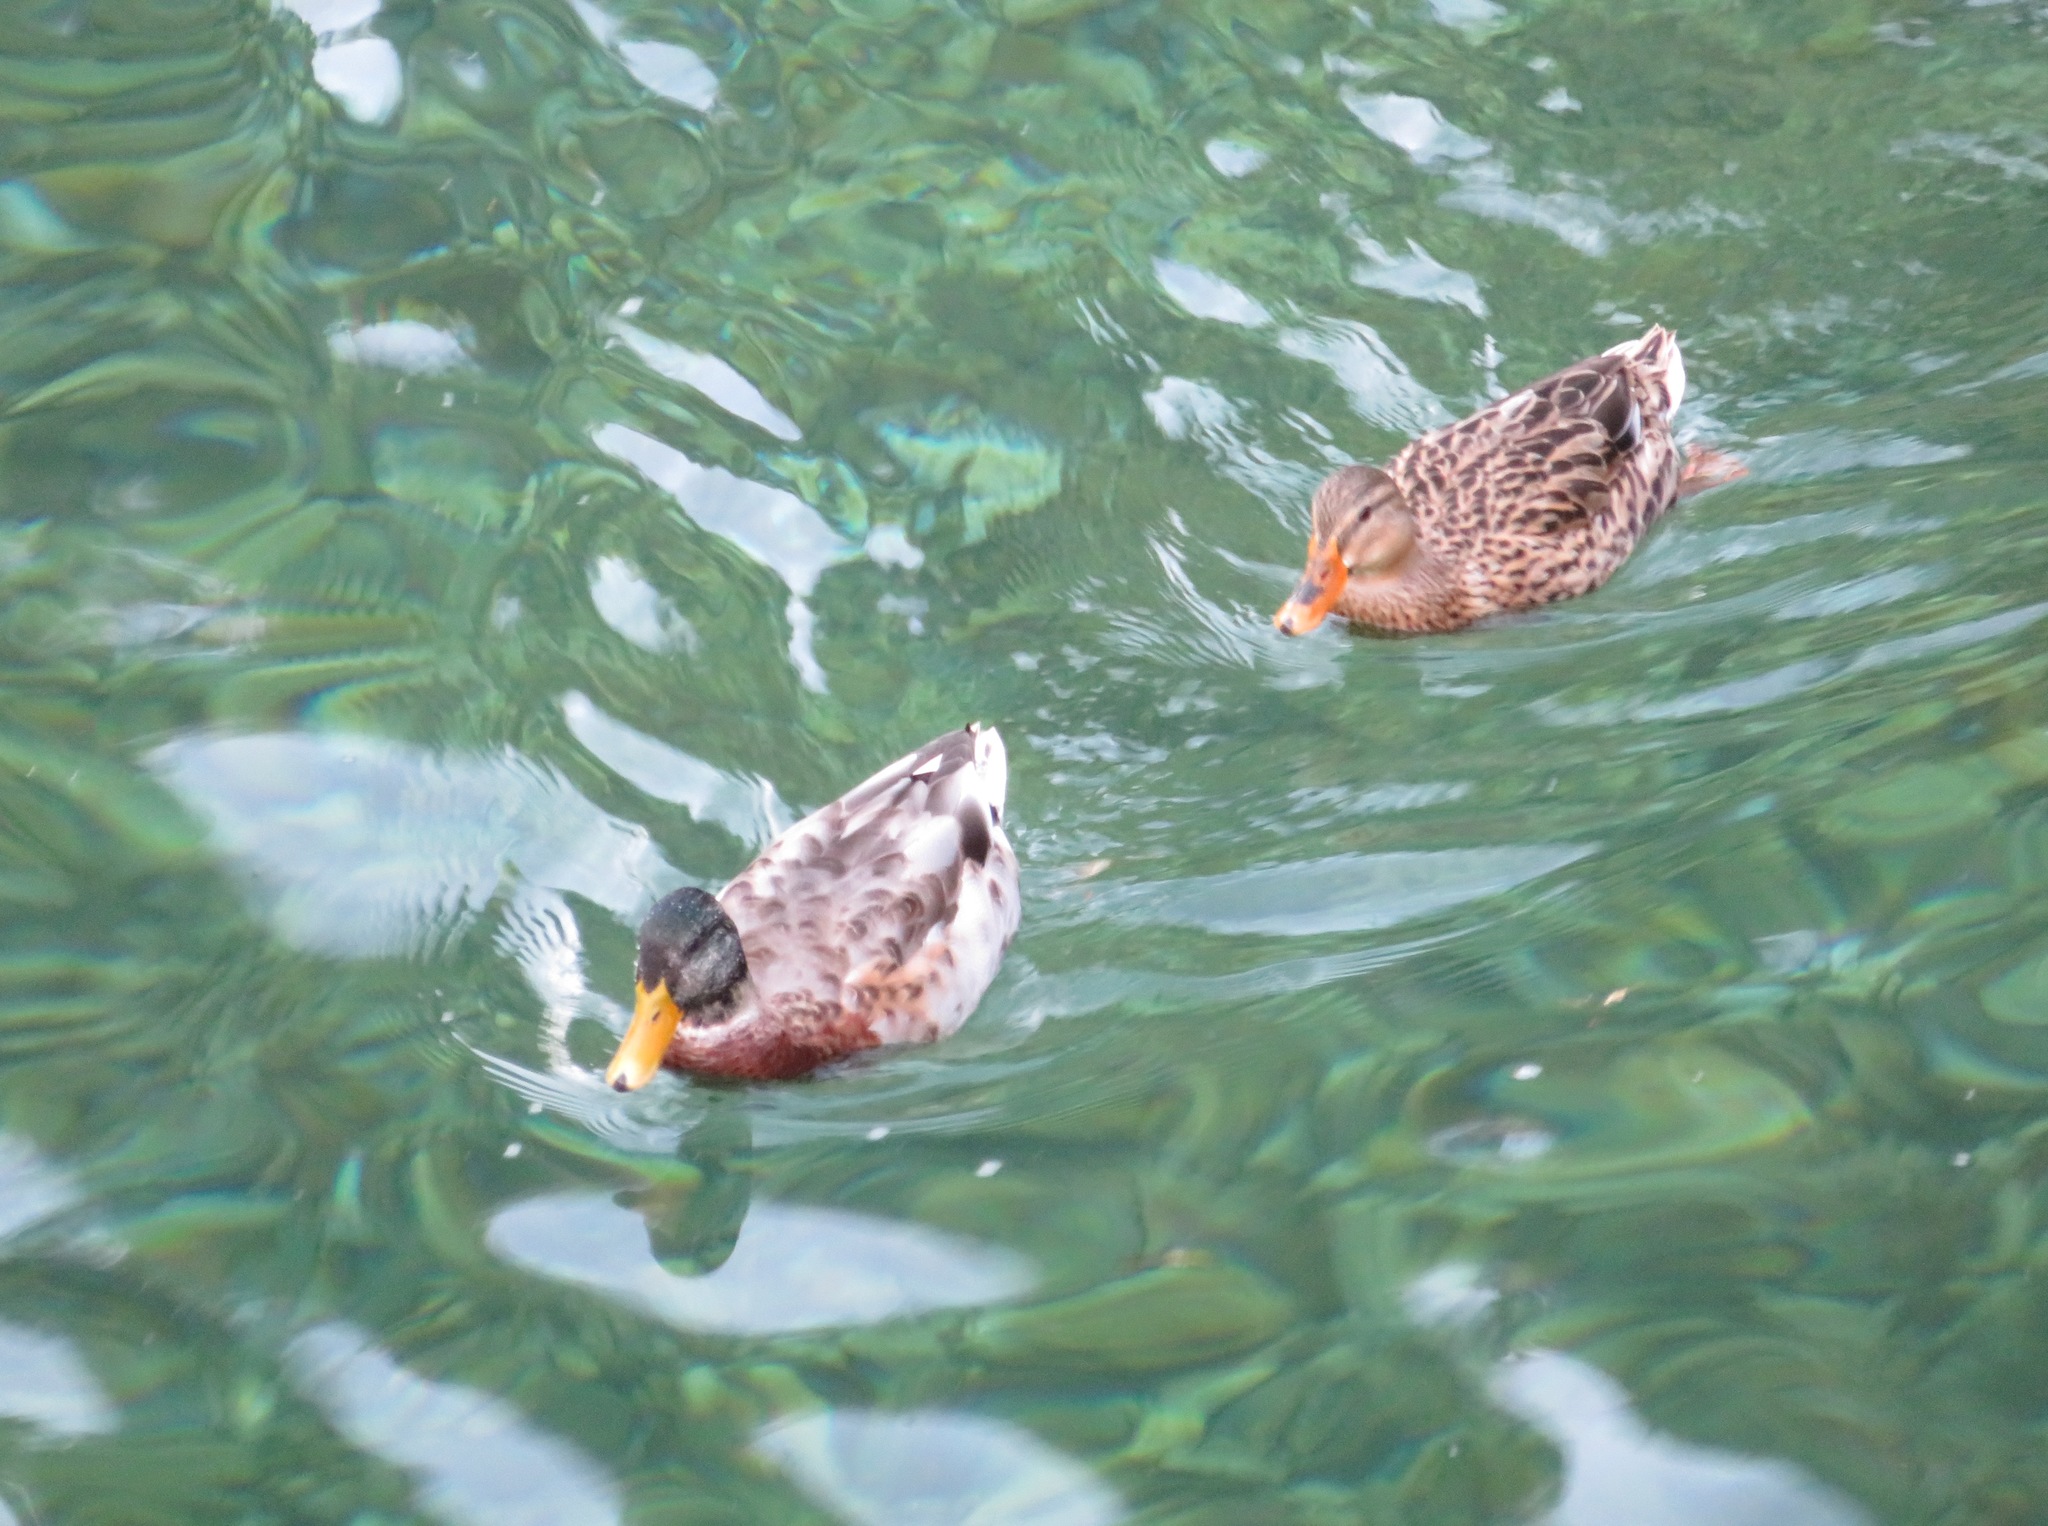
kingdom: Animalia
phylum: Chordata
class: Aves
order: Anseriformes
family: Anatidae
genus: Anas
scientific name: Anas platyrhynchos
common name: Mallard
